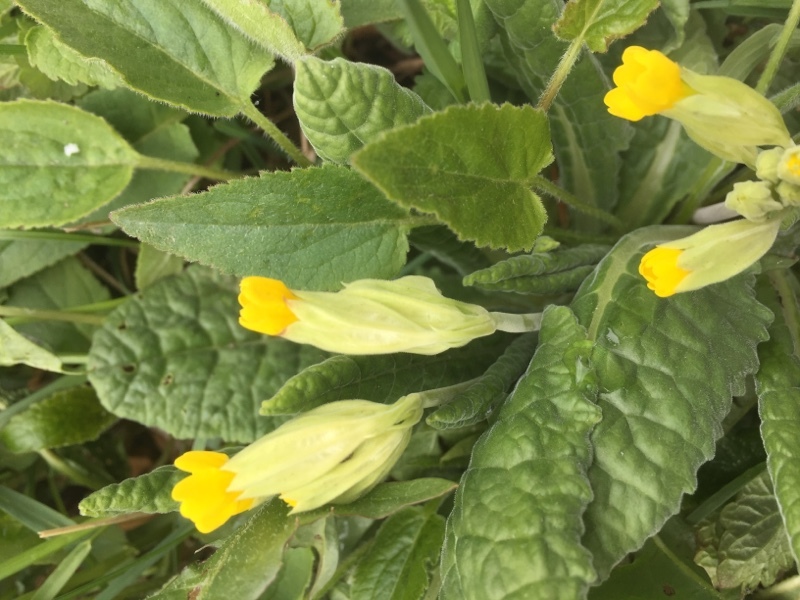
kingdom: Plantae
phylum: Tracheophyta
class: Magnoliopsida
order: Ericales
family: Primulaceae
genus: Primula
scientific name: Primula veris
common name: Cowslip
